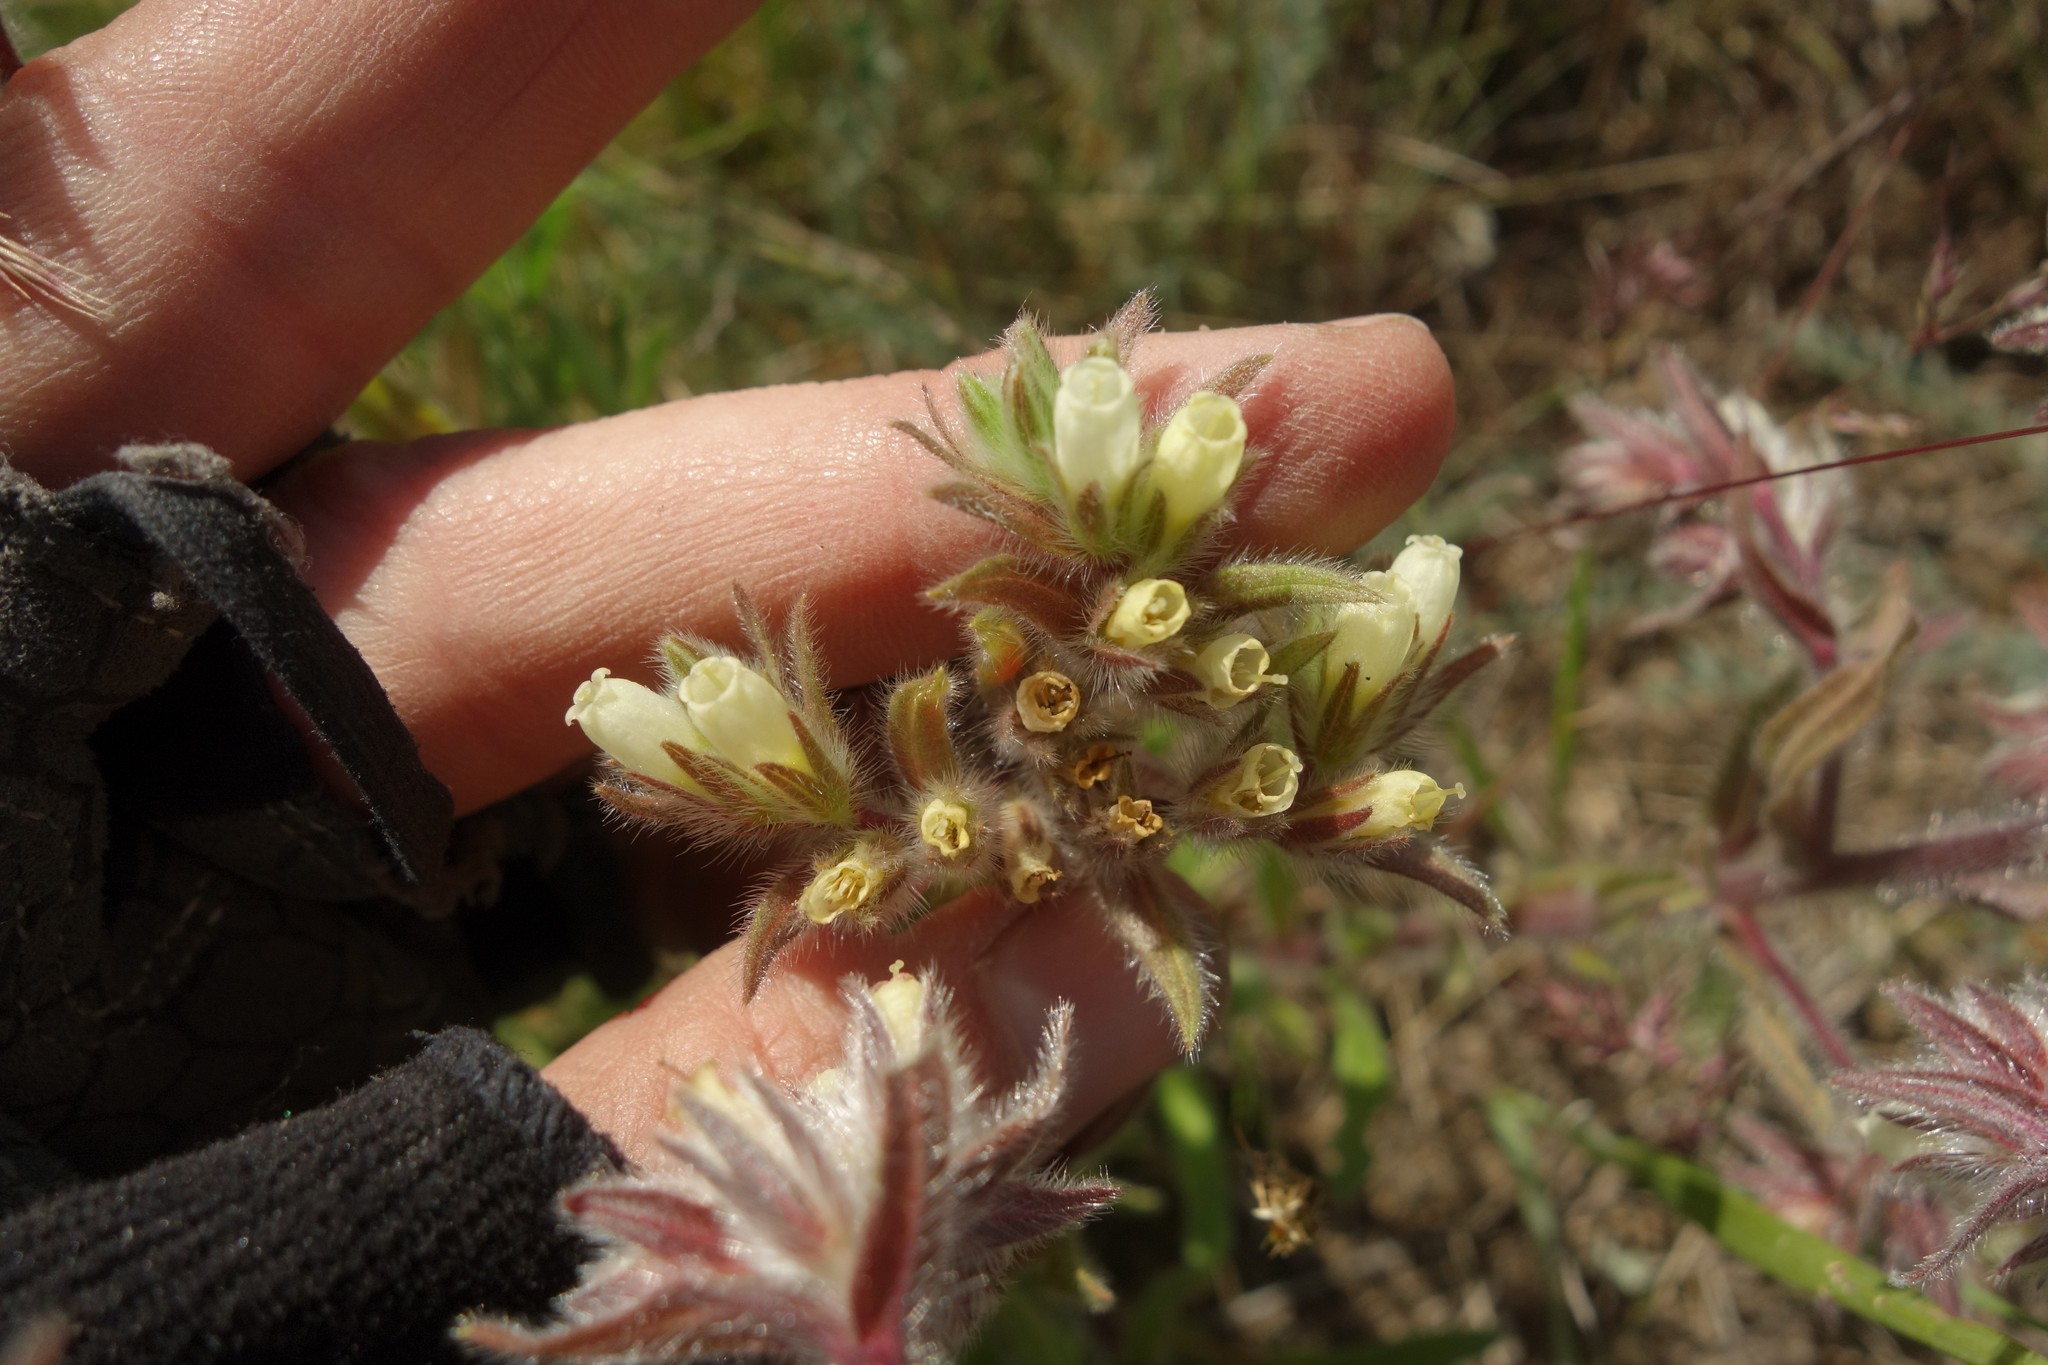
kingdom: Plantae
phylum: Tracheophyta
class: Magnoliopsida
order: Boraginales
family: Boraginaceae
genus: Onosma
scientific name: Onosma tinctoria
